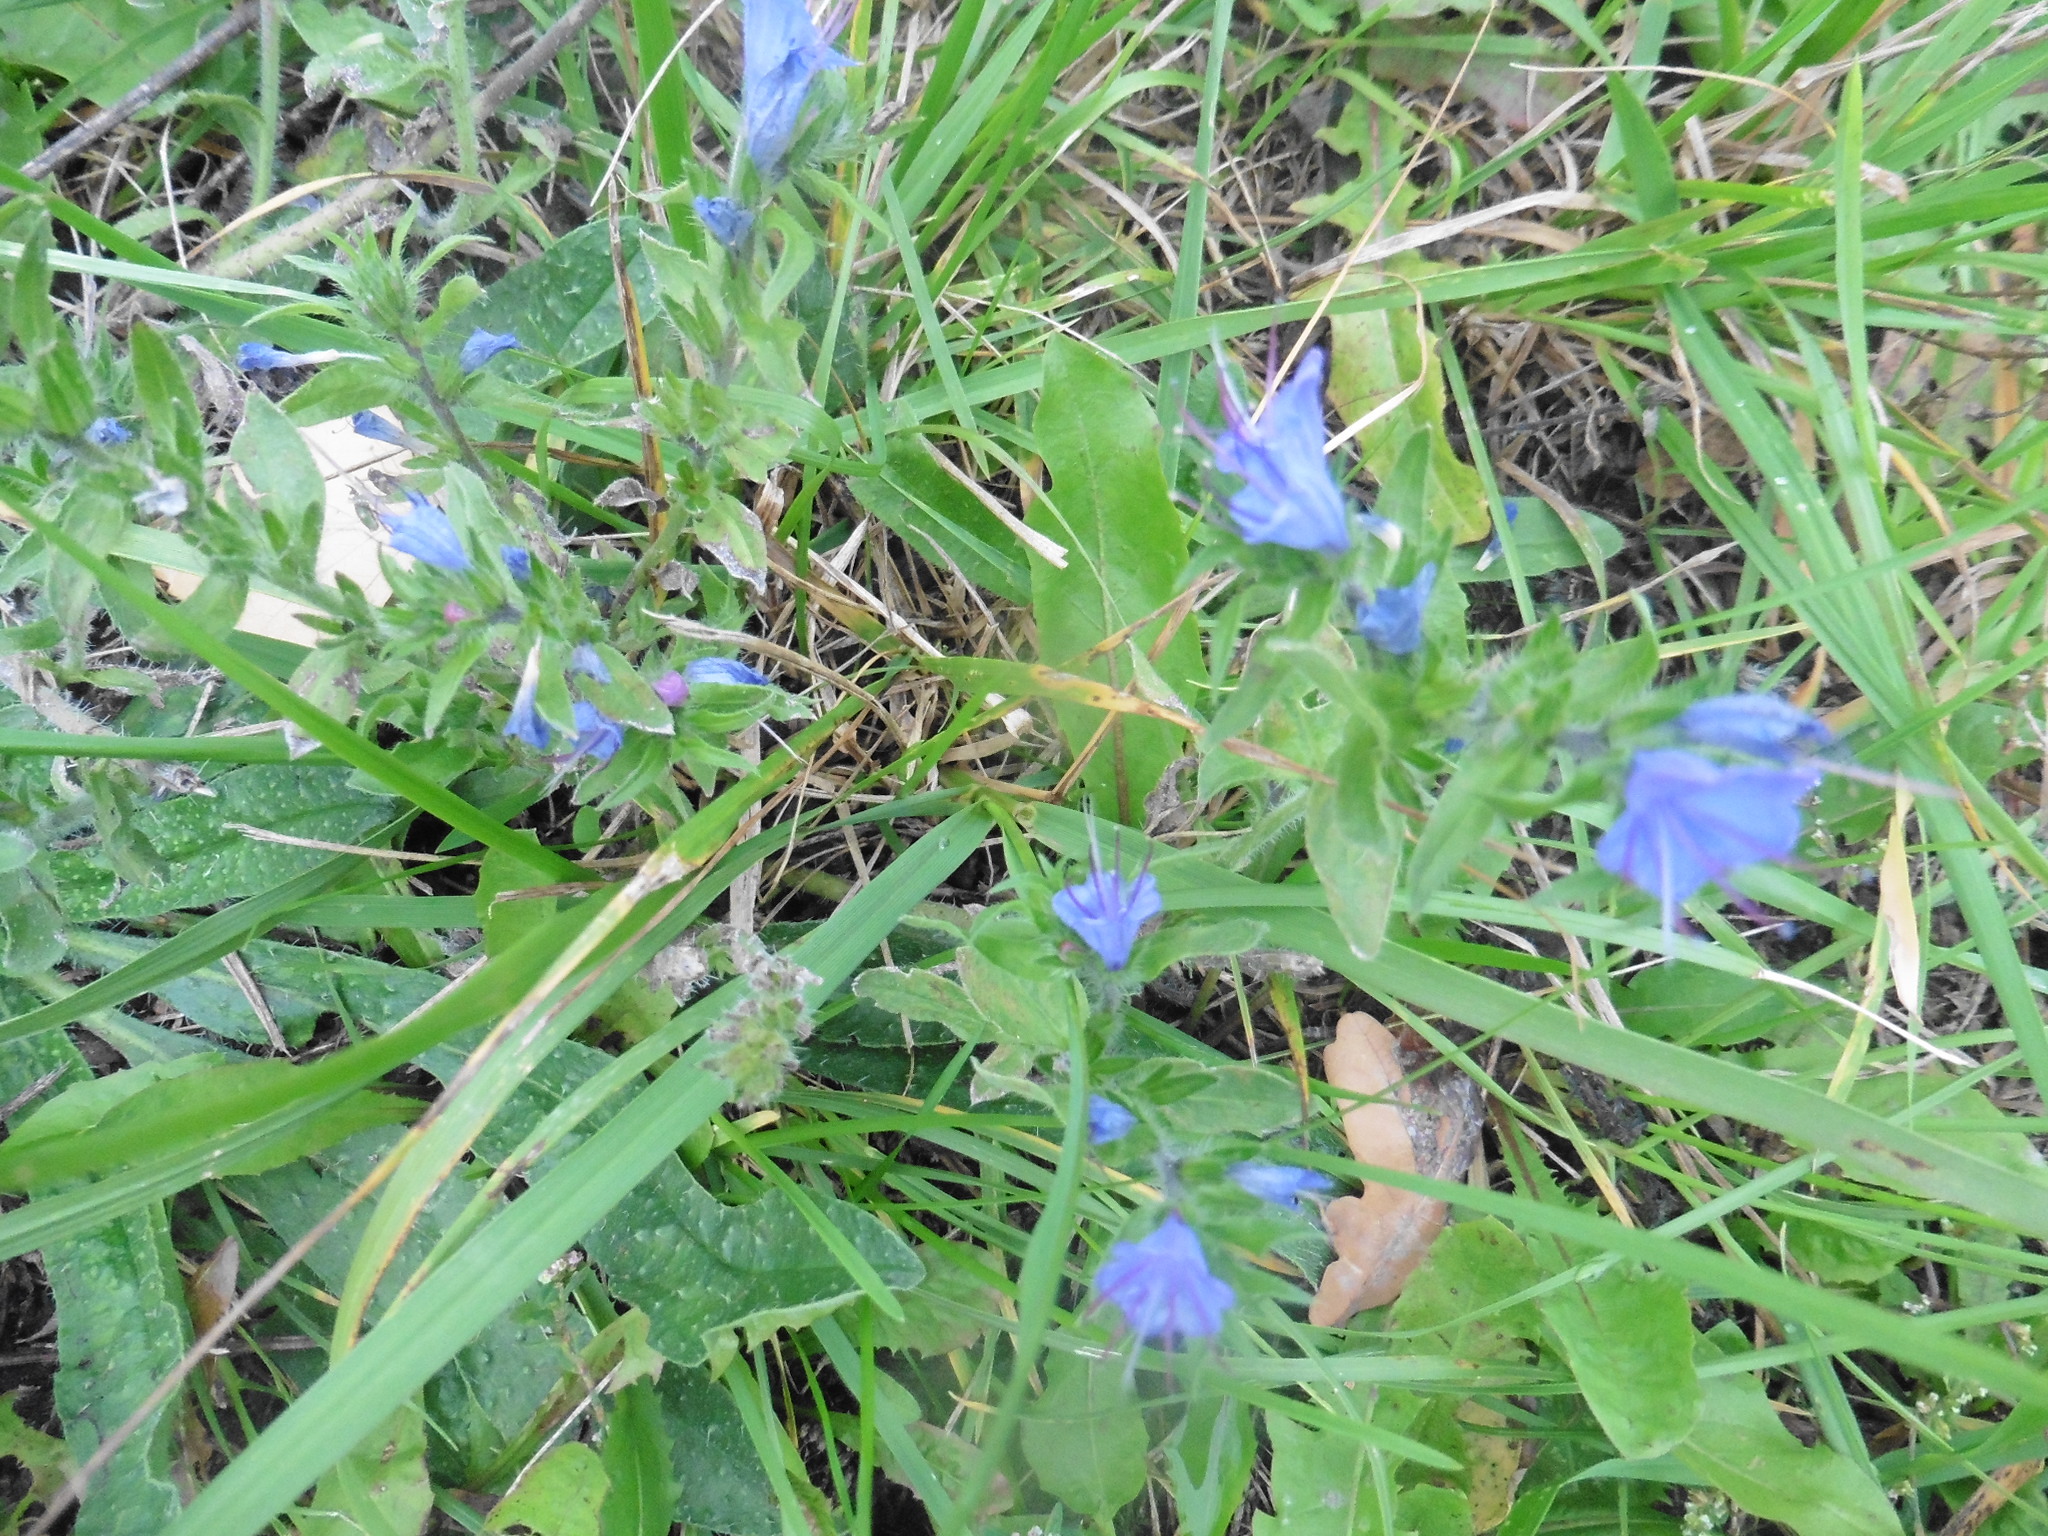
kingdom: Plantae
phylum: Tracheophyta
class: Magnoliopsida
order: Boraginales
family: Boraginaceae
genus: Echium
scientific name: Echium vulgare
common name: Common viper's bugloss
